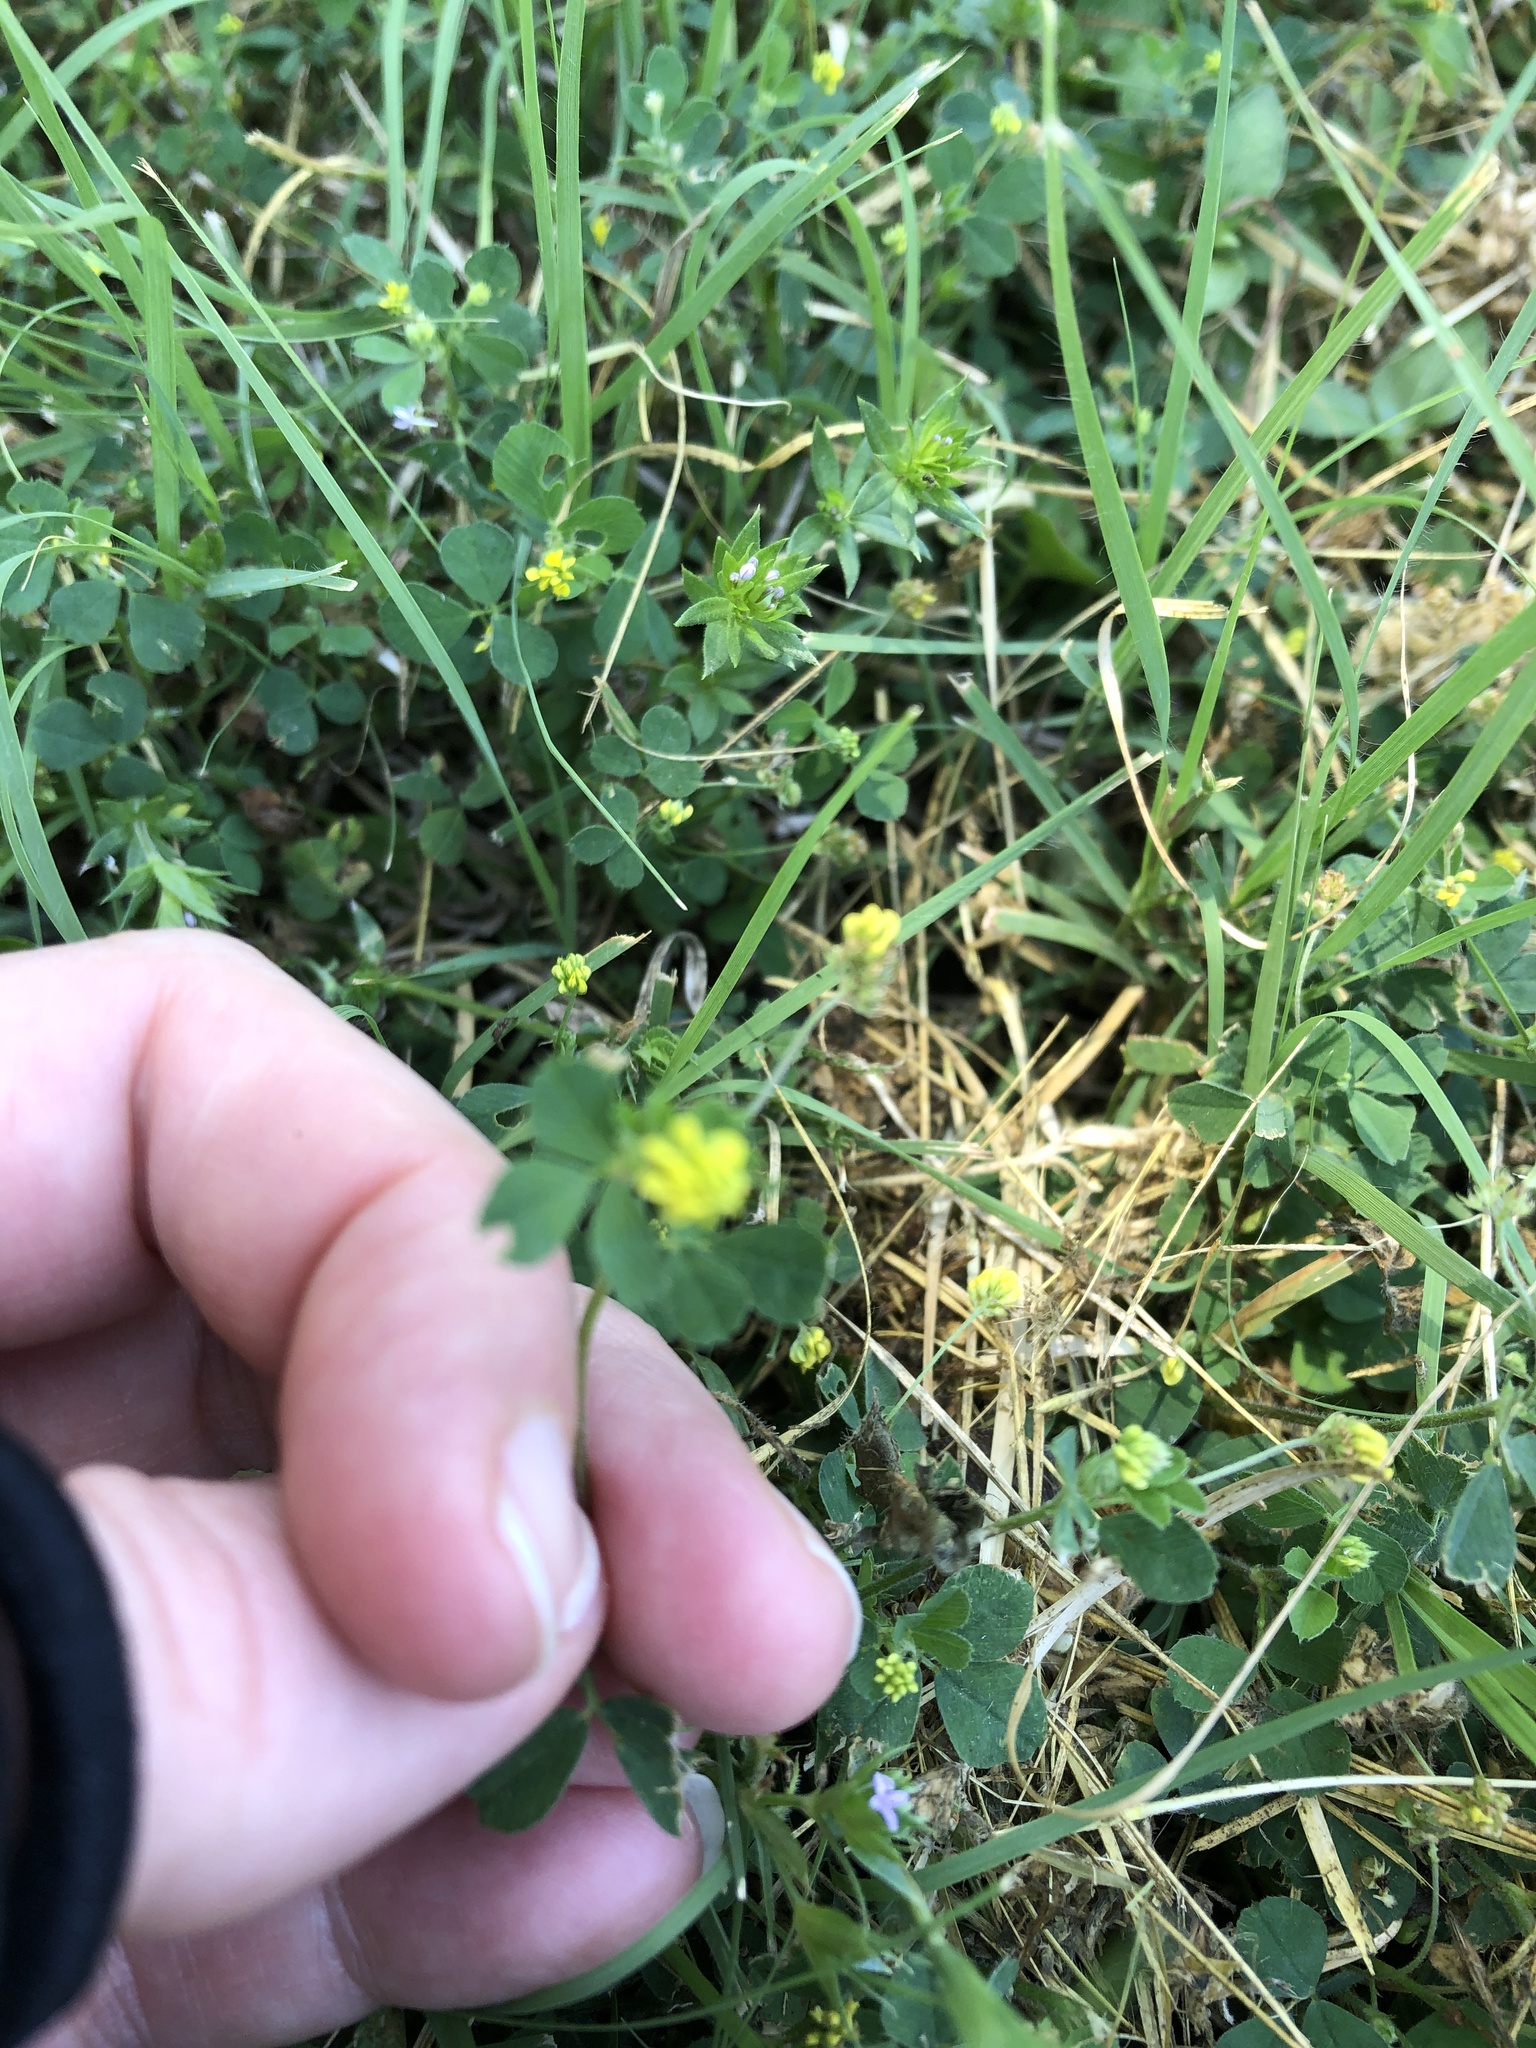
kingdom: Plantae
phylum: Tracheophyta
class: Magnoliopsida
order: Fabales
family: Fabaceae
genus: Medicago
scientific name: Medicago lupulina
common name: Black medick
